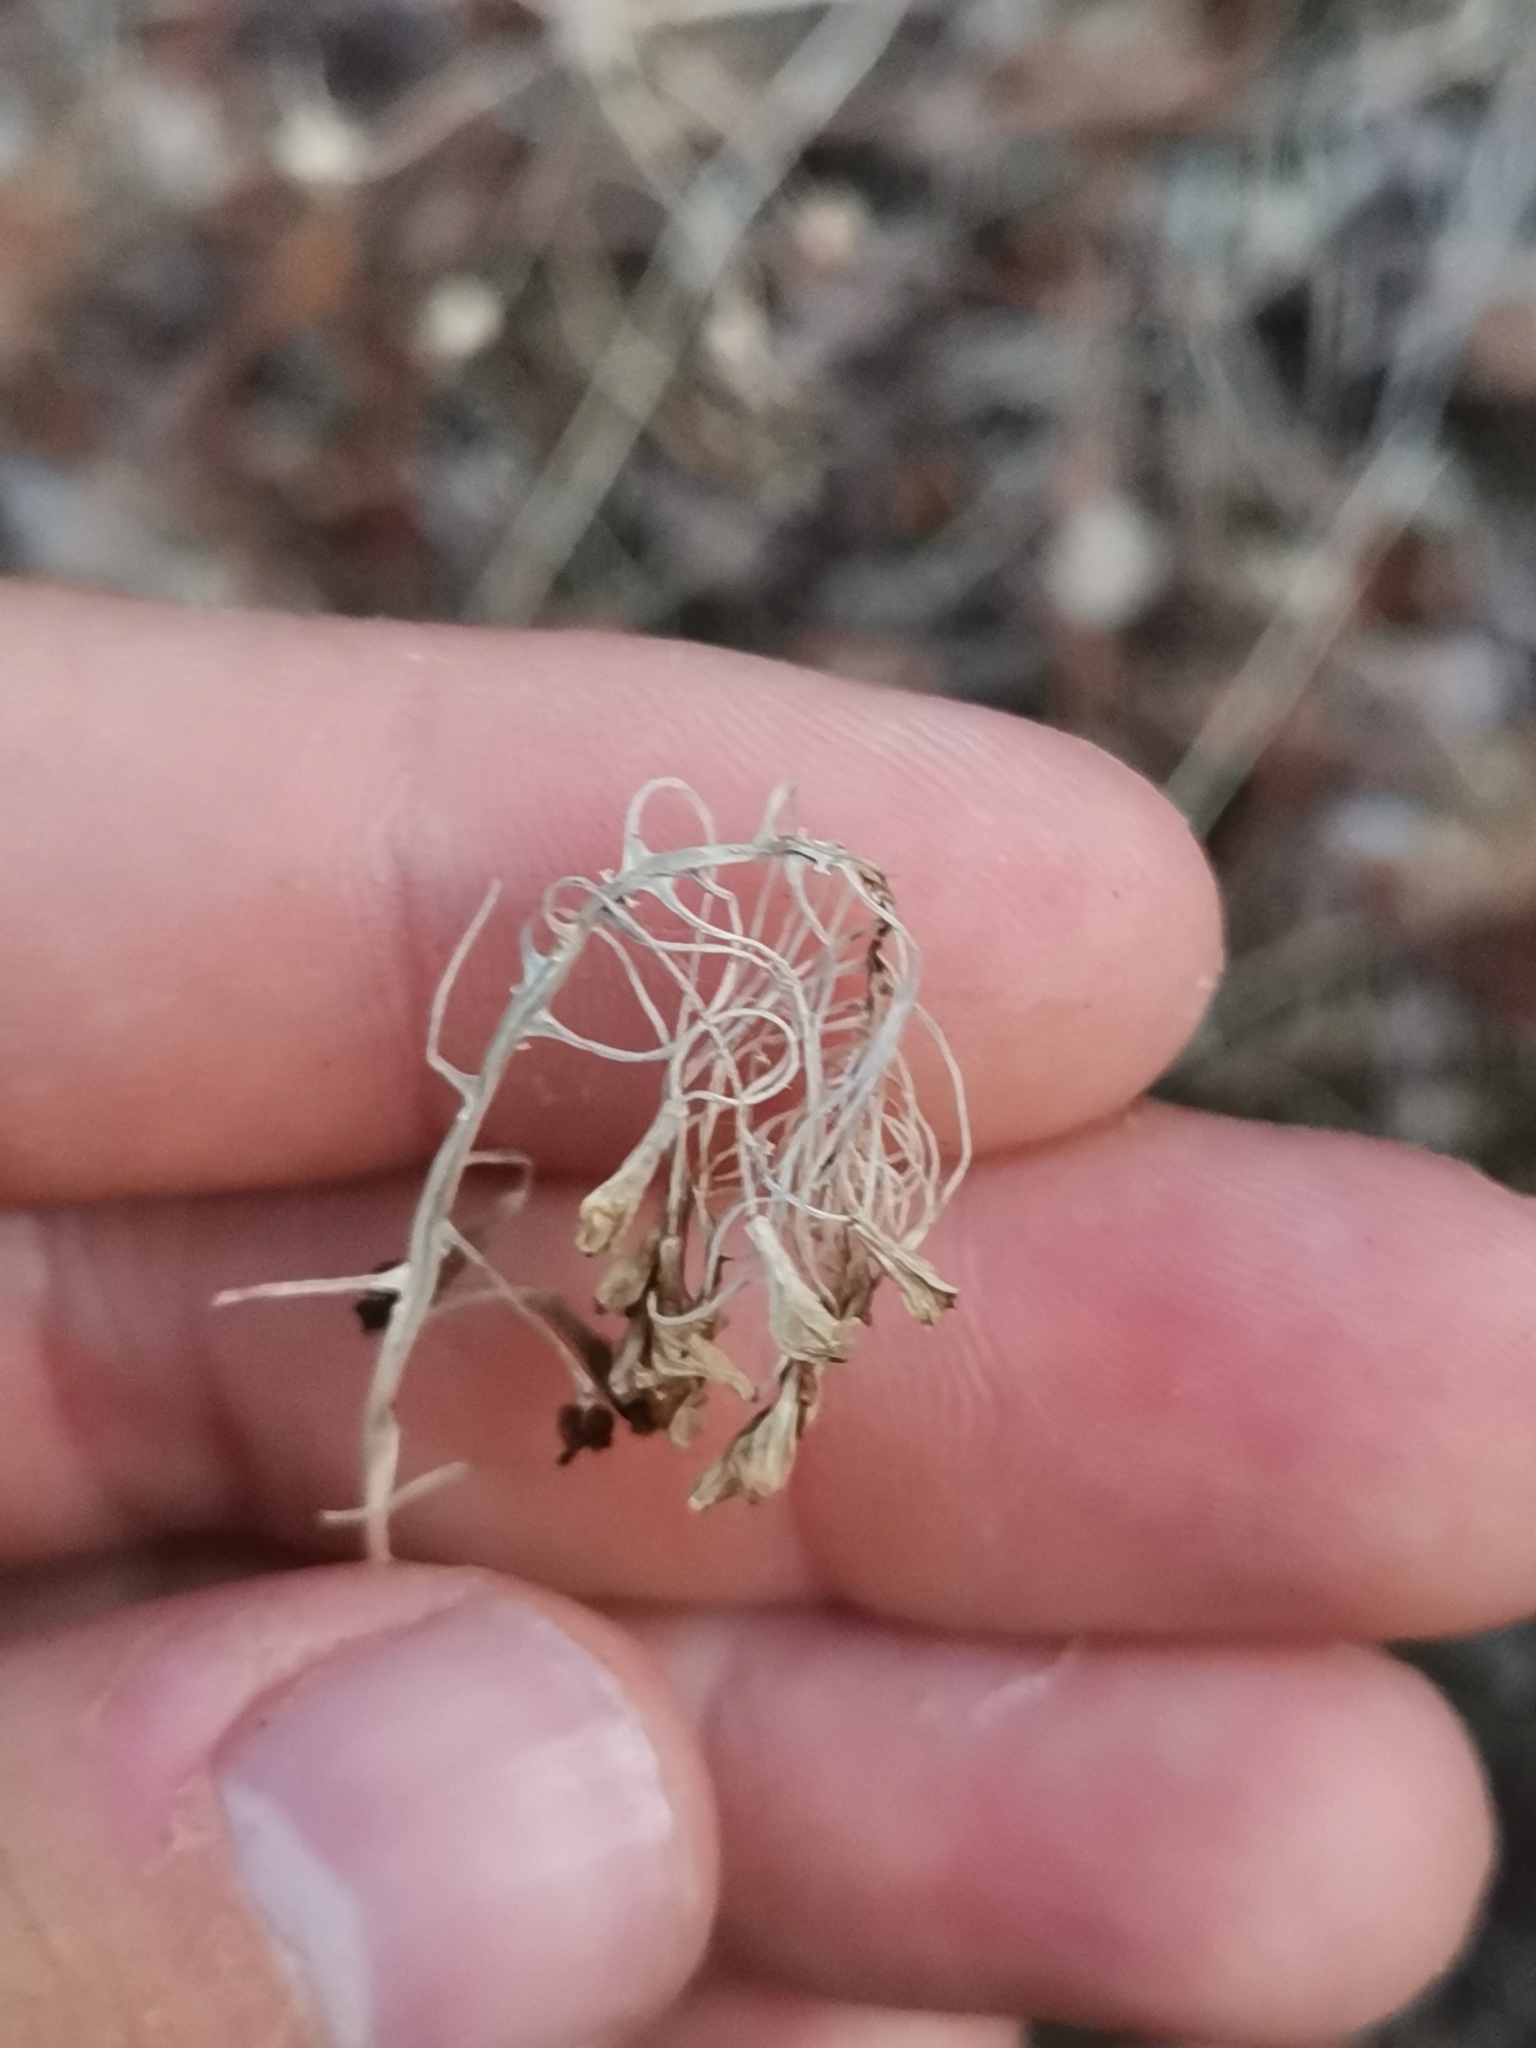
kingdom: Plantae
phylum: Tracheophyta
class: Liliopsida
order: Asparagales
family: Asparagaceae
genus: Muscari
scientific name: Muscari comosum
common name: Tassel hyacinth
